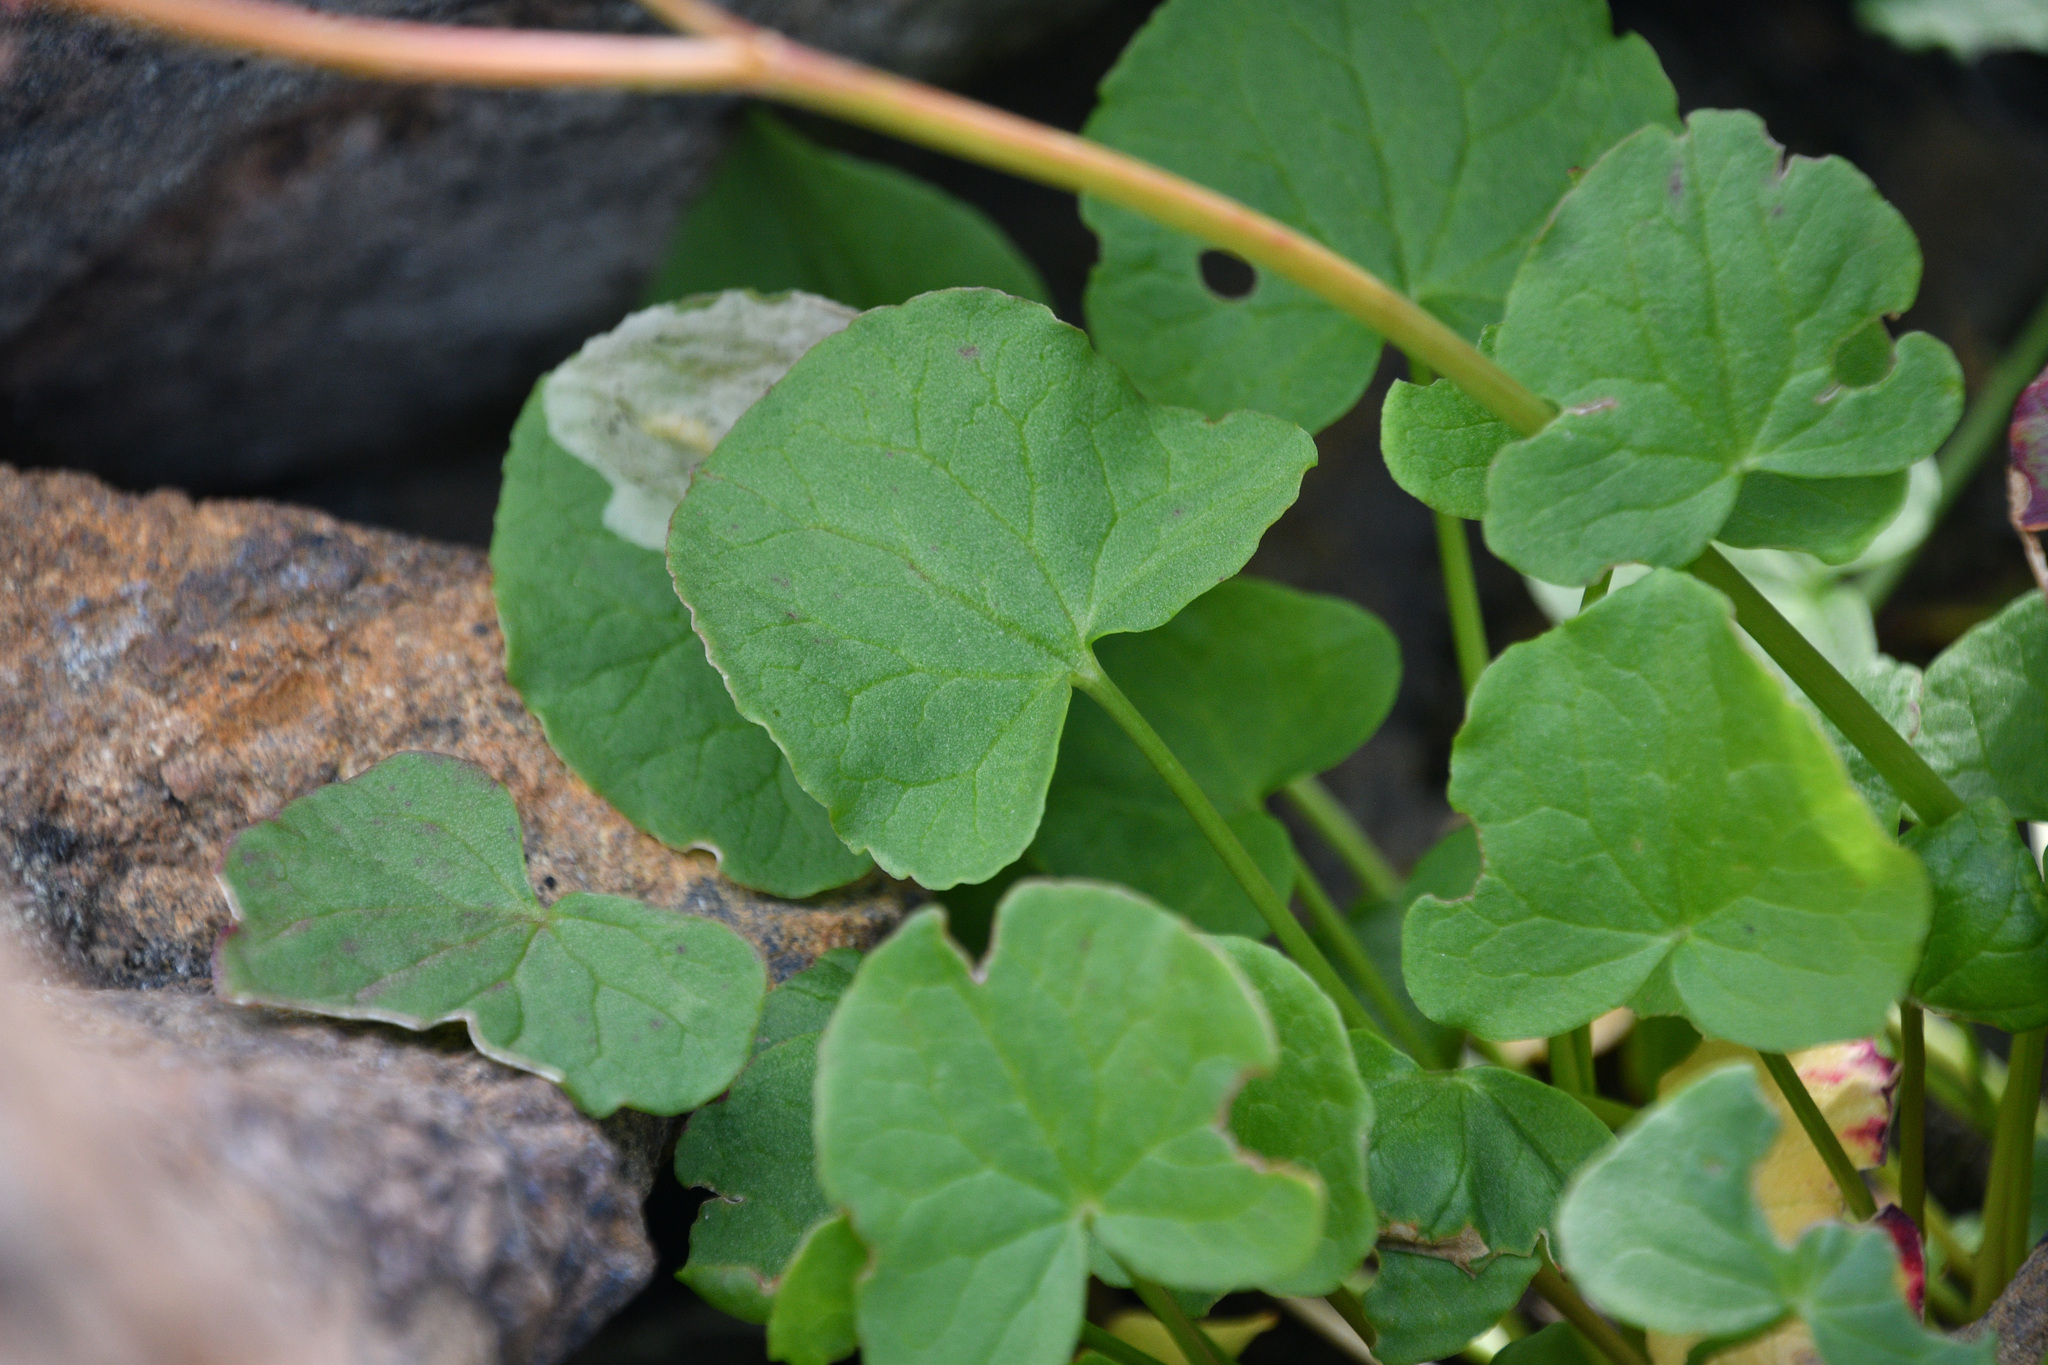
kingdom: Plantae
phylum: Tracheophyta
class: Magnoliopsida
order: Caryophyllales
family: Polygonaceae
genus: Oxyria
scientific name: Oxyria digyna
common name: Alpine mountain-sorrel
